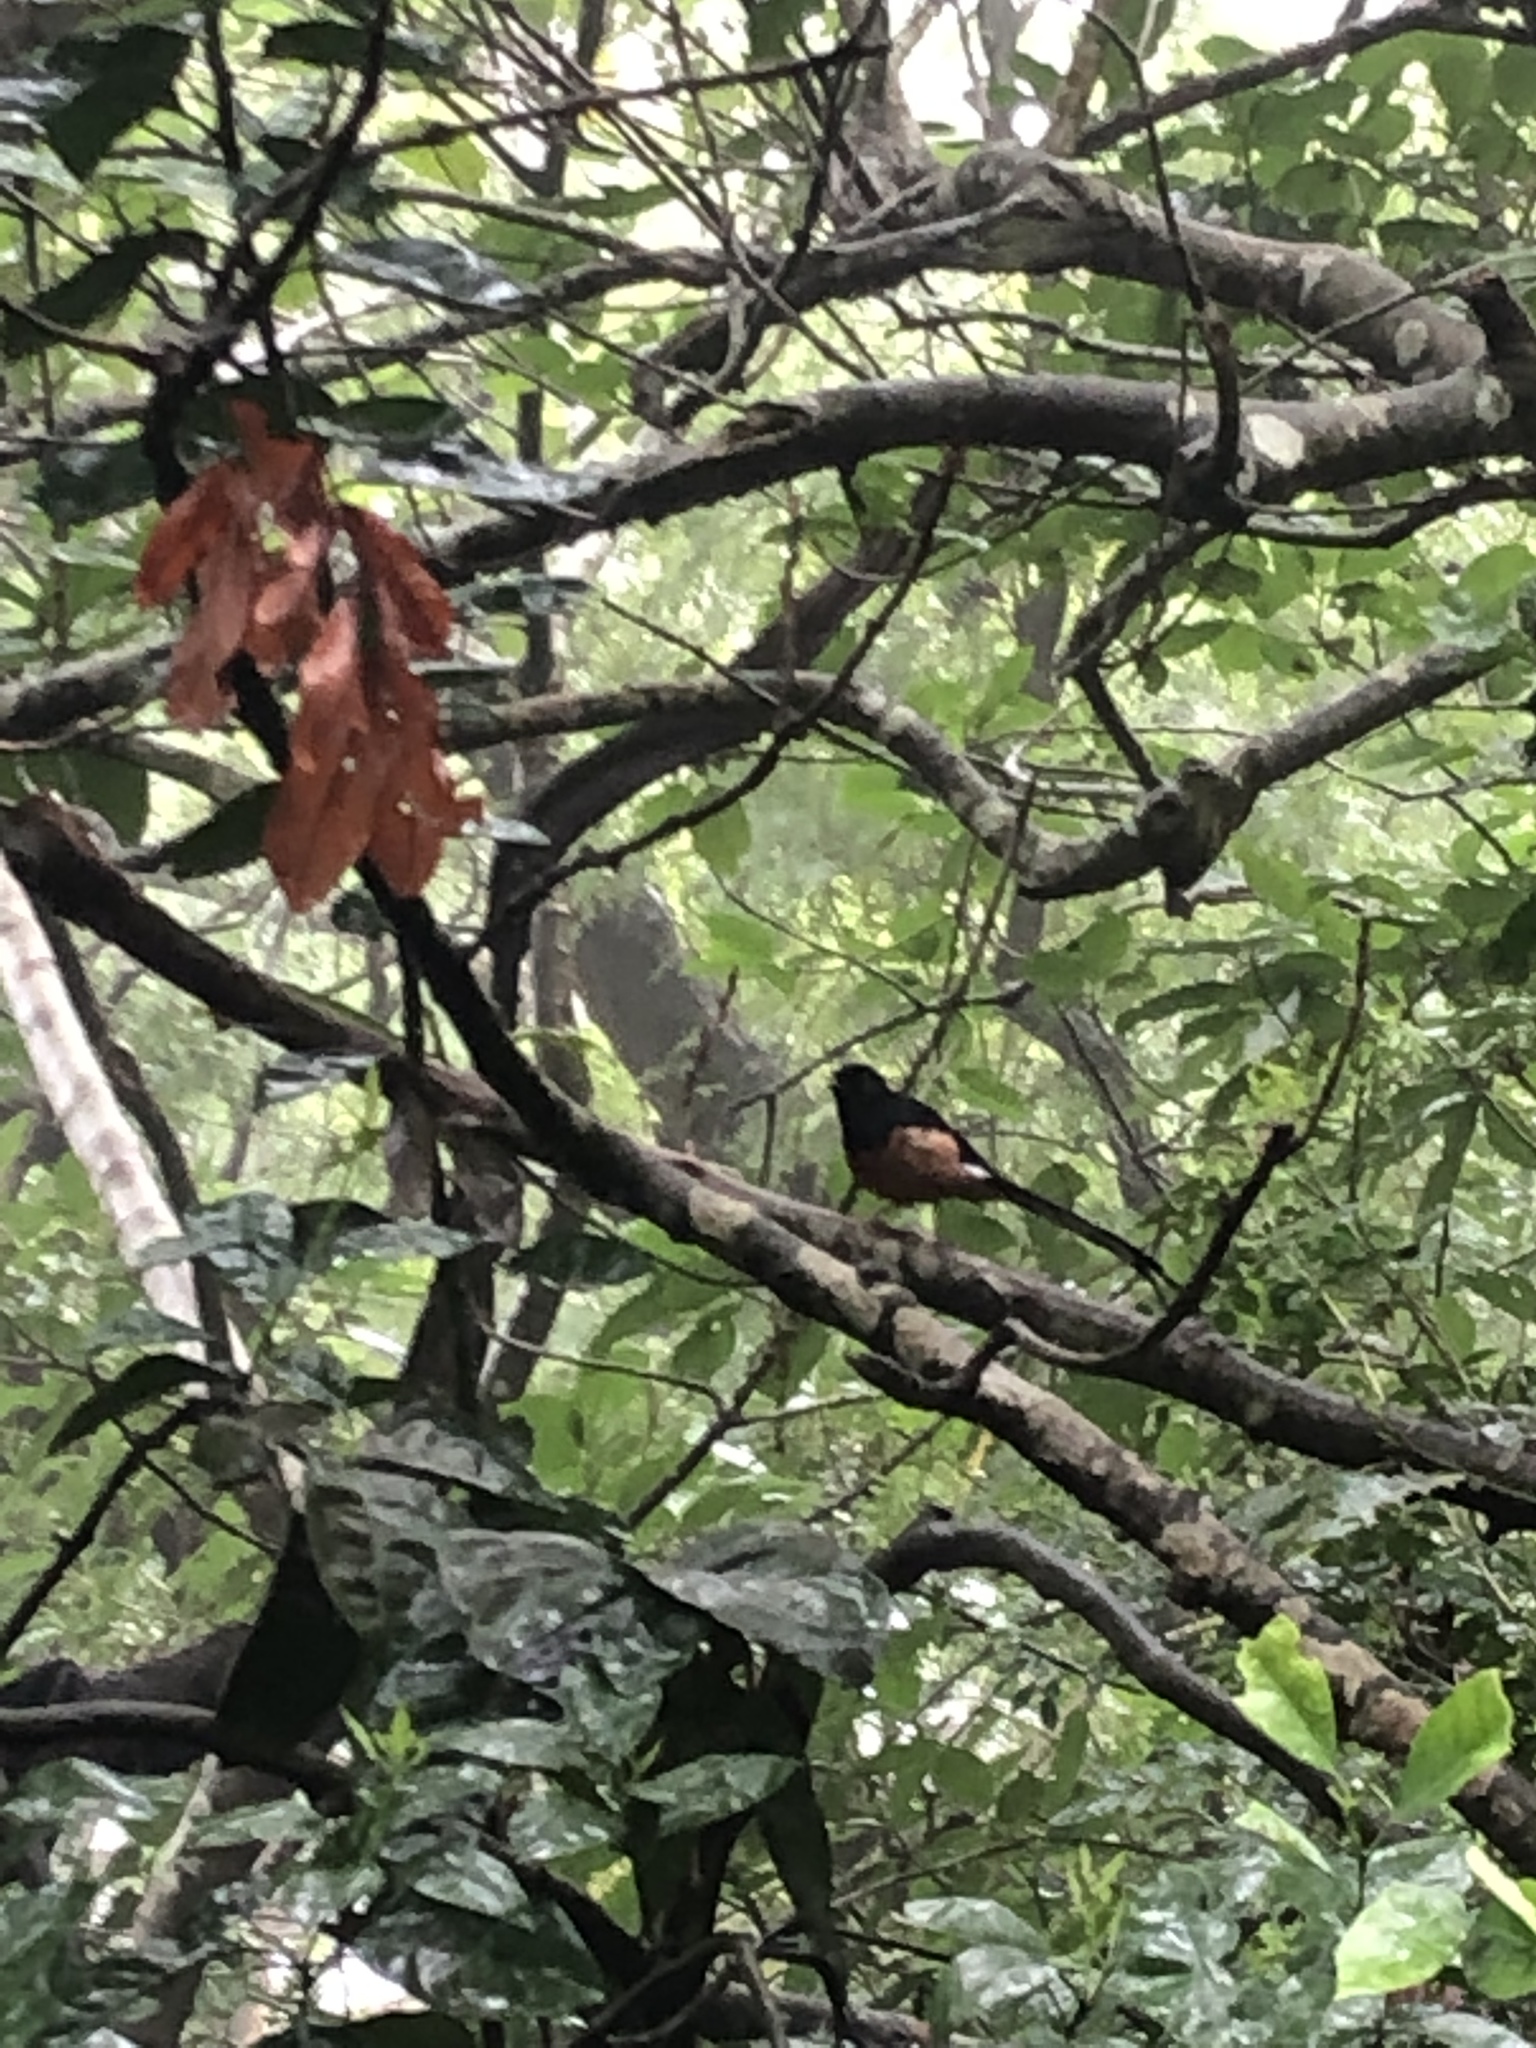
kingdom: Animalia
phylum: Chordata
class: Aves
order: Passeriformes
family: Muscicapidae
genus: Copsychus
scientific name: Copsychus malabaricus
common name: White-rumped shama
